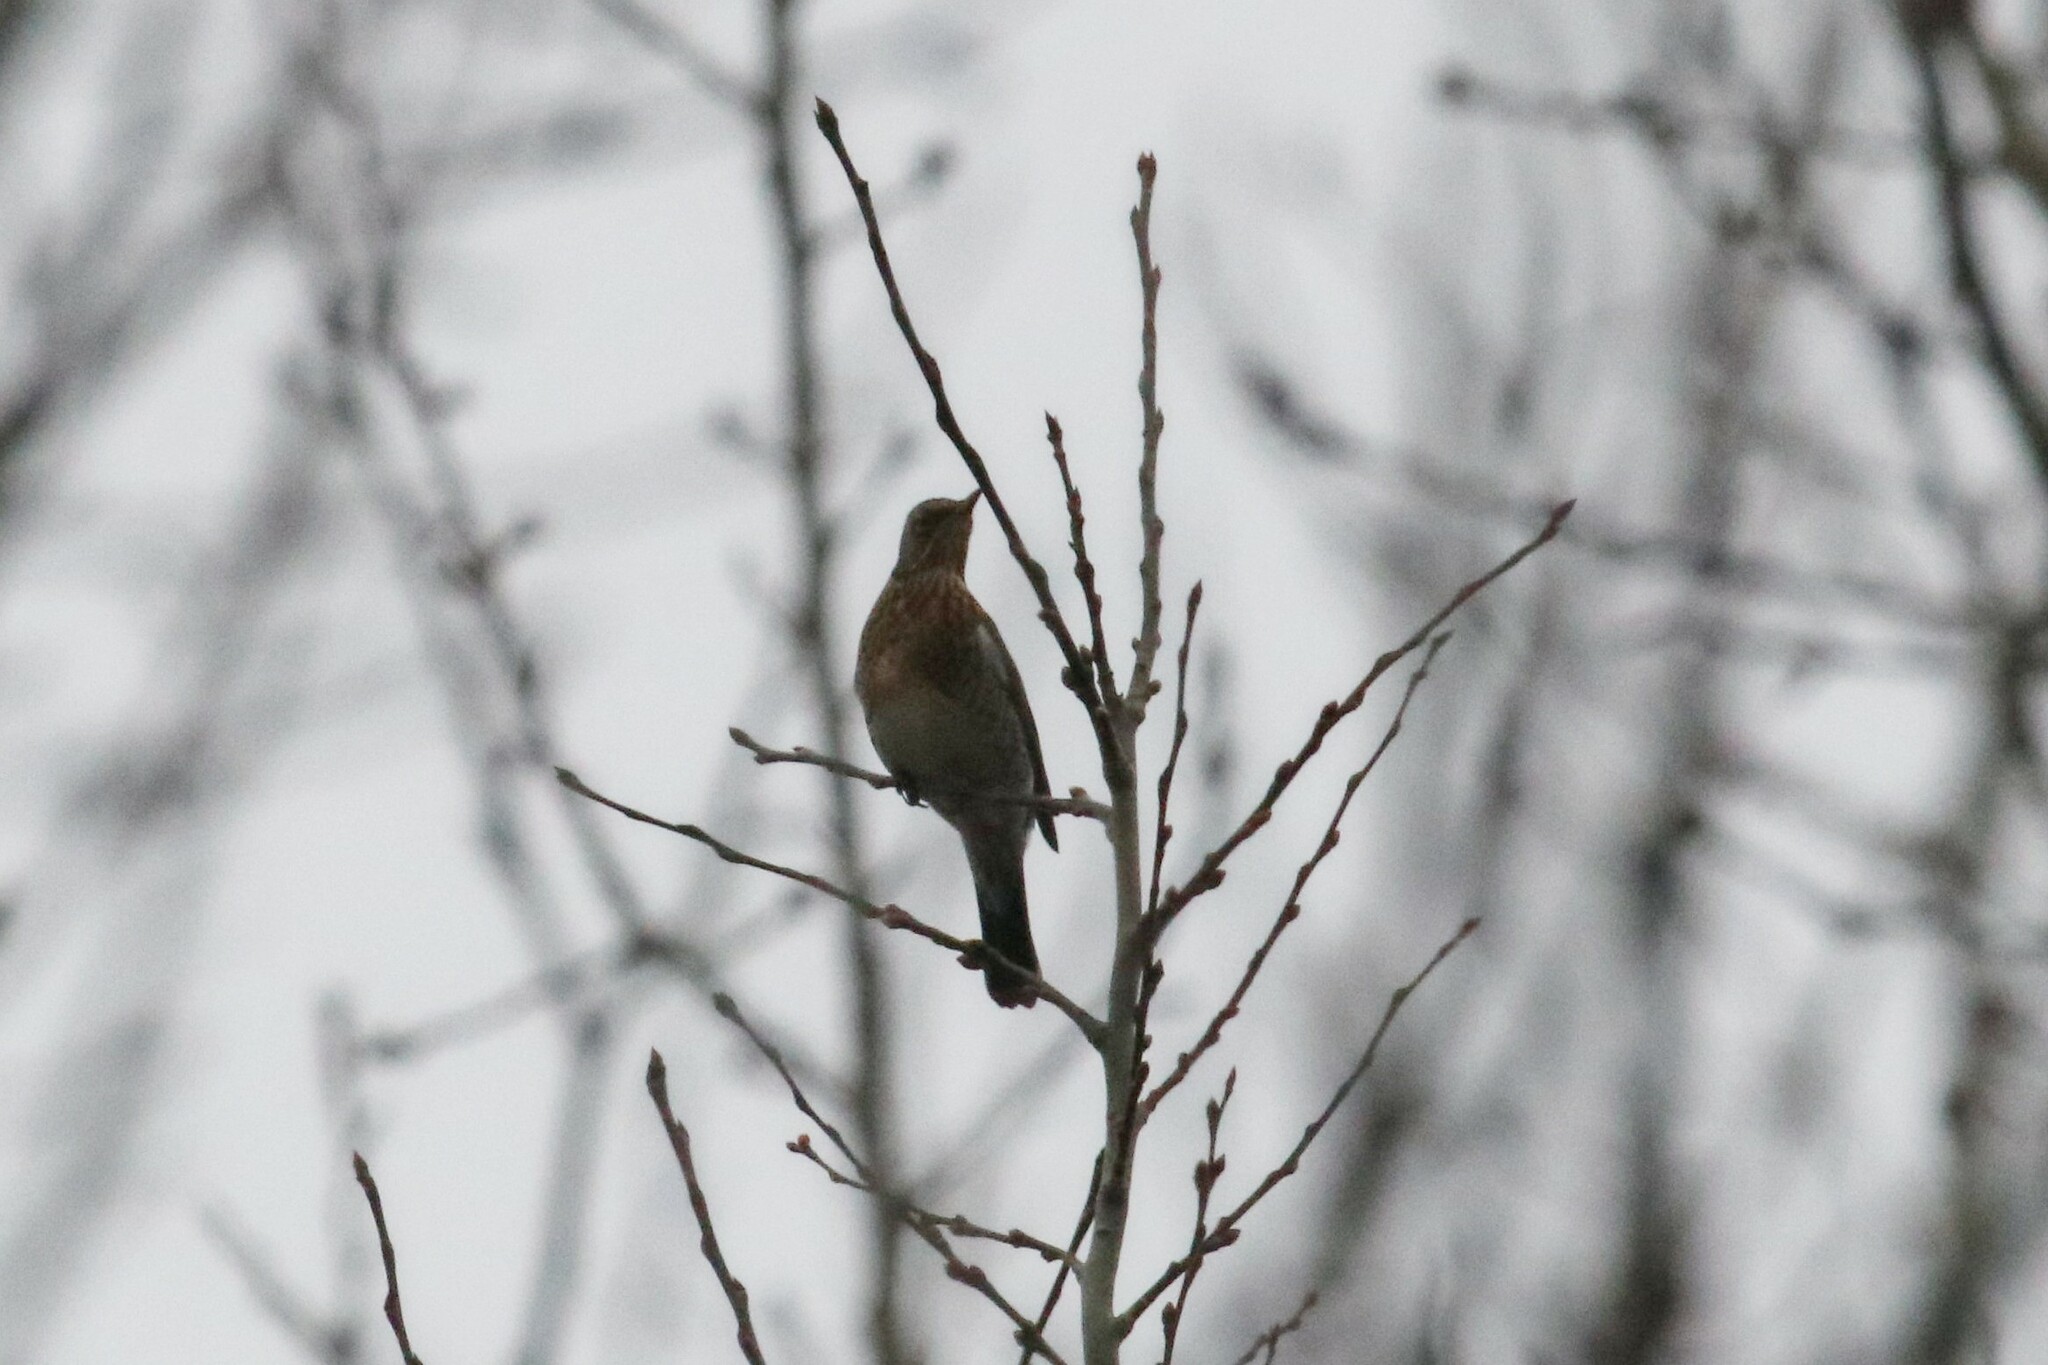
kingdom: Animalia
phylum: Chordata
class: Aves
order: Passeriformes
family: Turdidae
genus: Turdus
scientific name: Turdus pilaris
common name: Fieldfare
